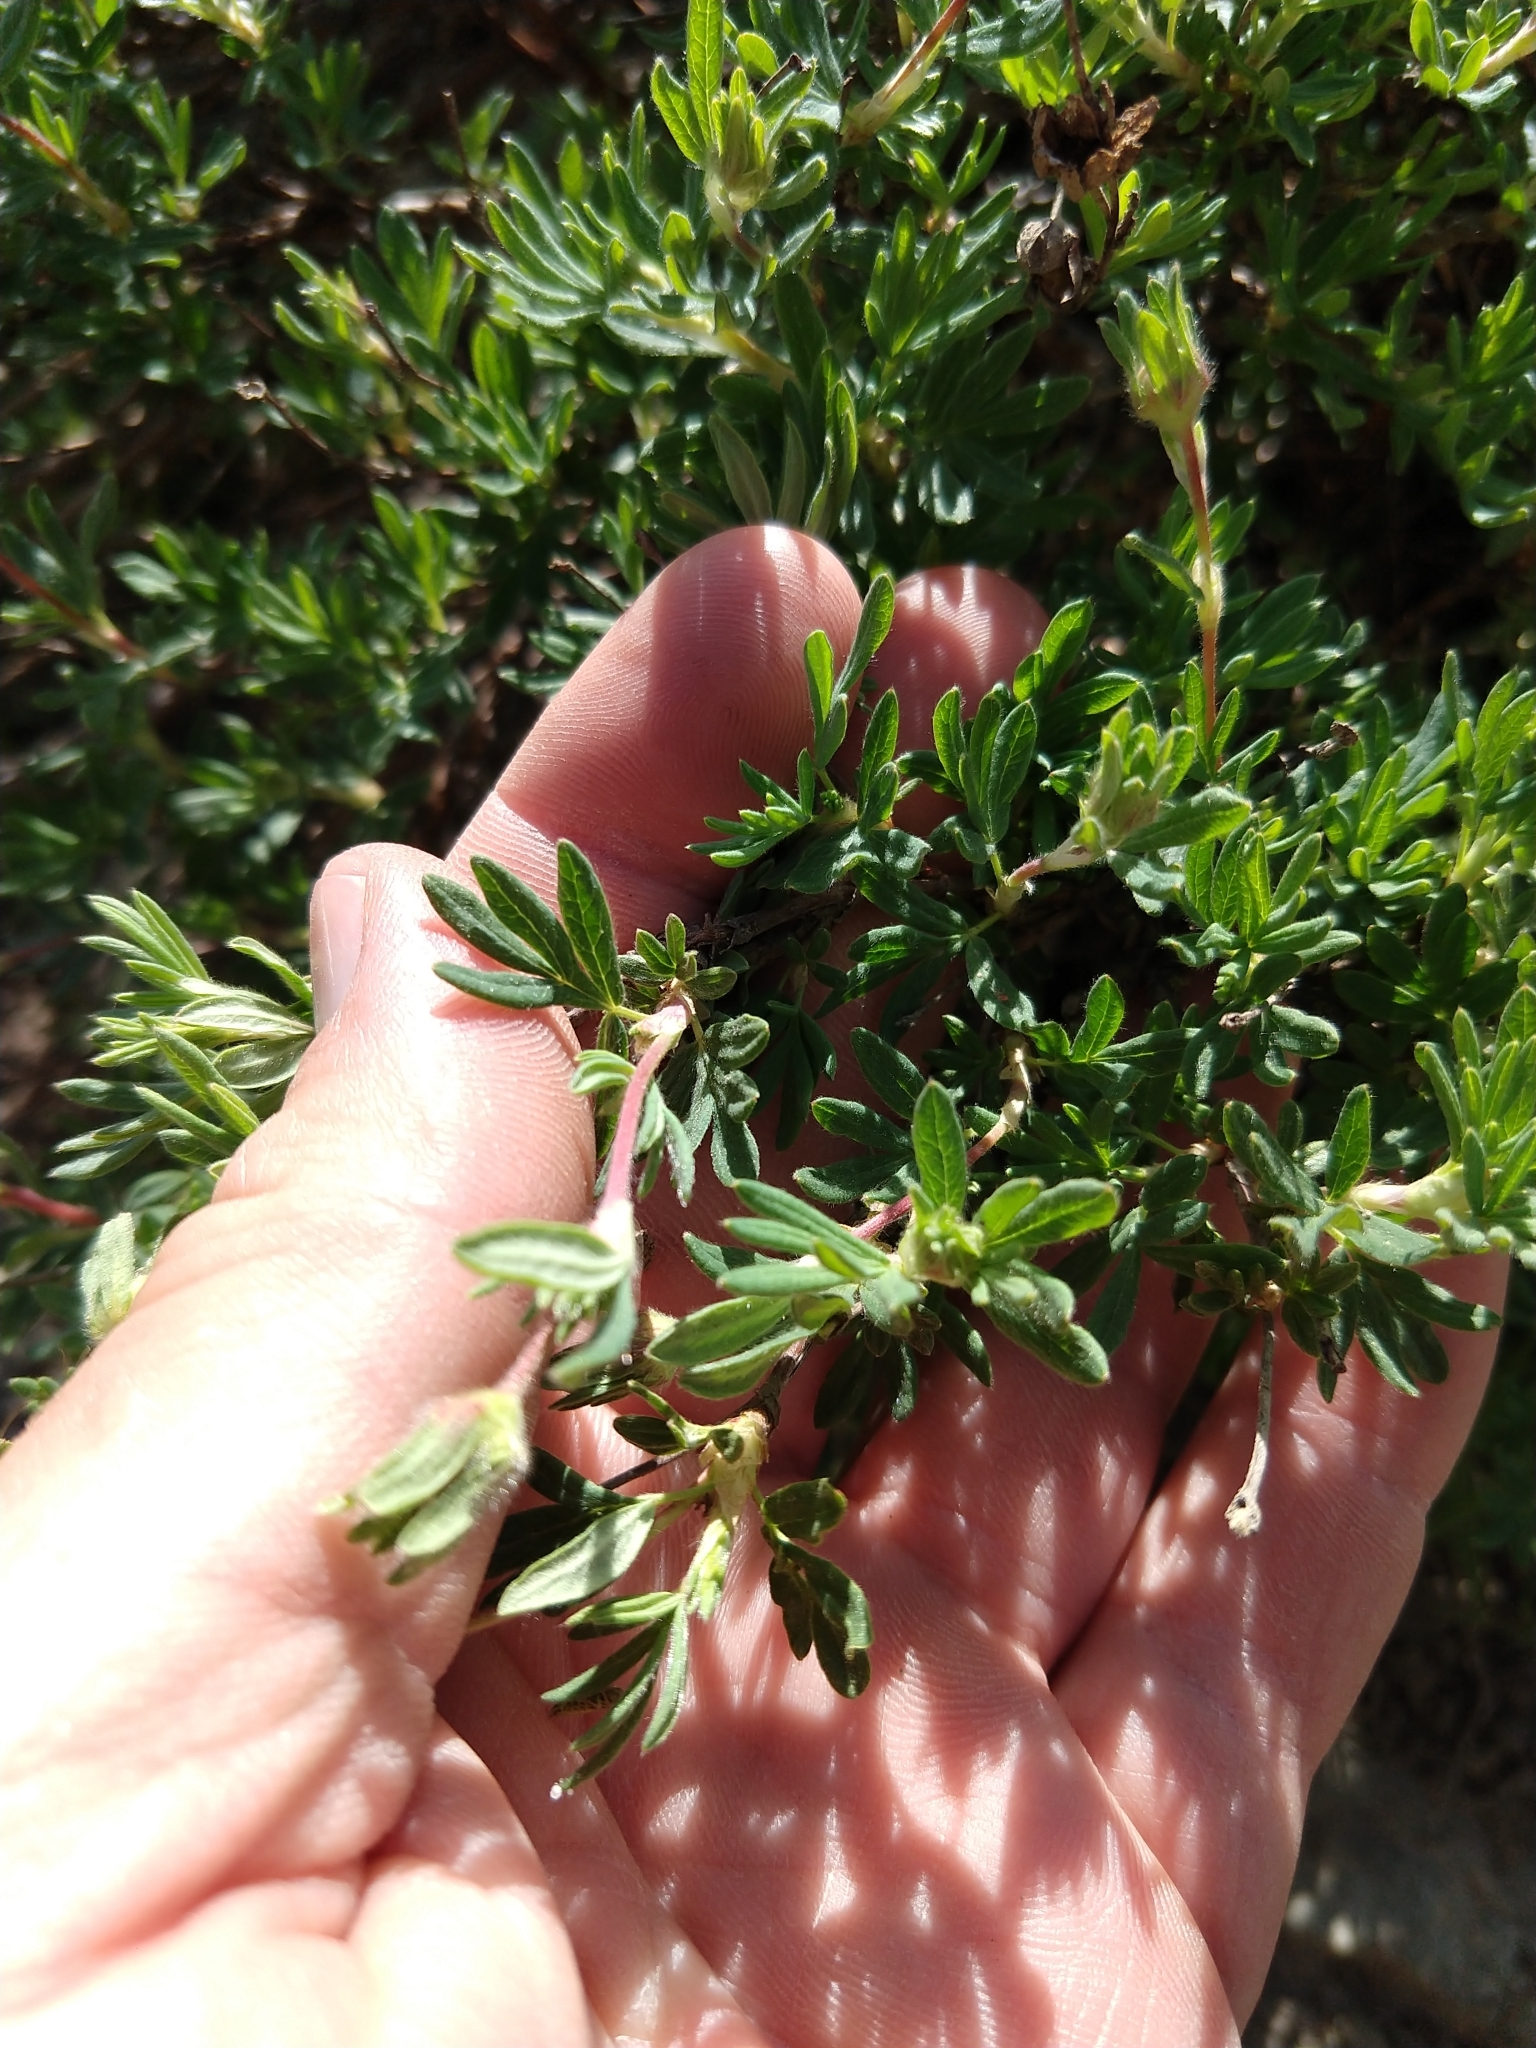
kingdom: Plantae
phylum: Tracheophyta
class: Magnoliopsida
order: Rosales
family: Rosaceae
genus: Dasiphora
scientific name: Dasiphora fruticosa
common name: Shrubby cinquefoil
